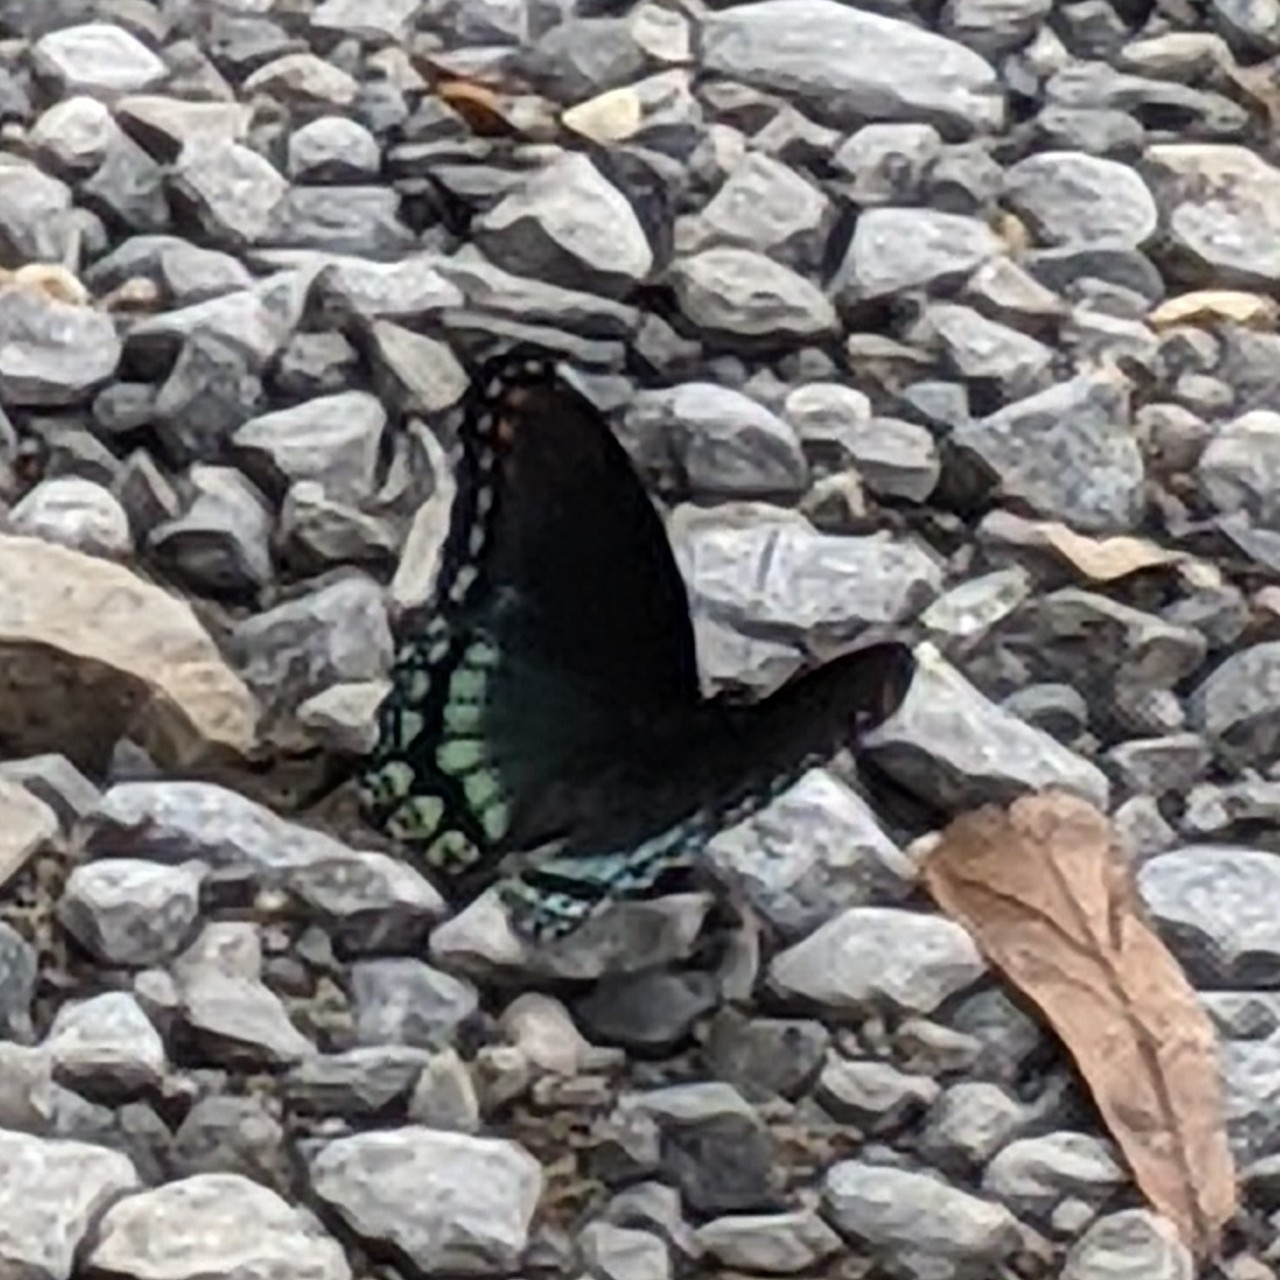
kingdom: Animalia
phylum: Arthropoda
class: Insecta
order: Lepidoptera
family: Nymphalidae
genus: Limenitis
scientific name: Limenitis arthemis
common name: Red-spotted admiral
